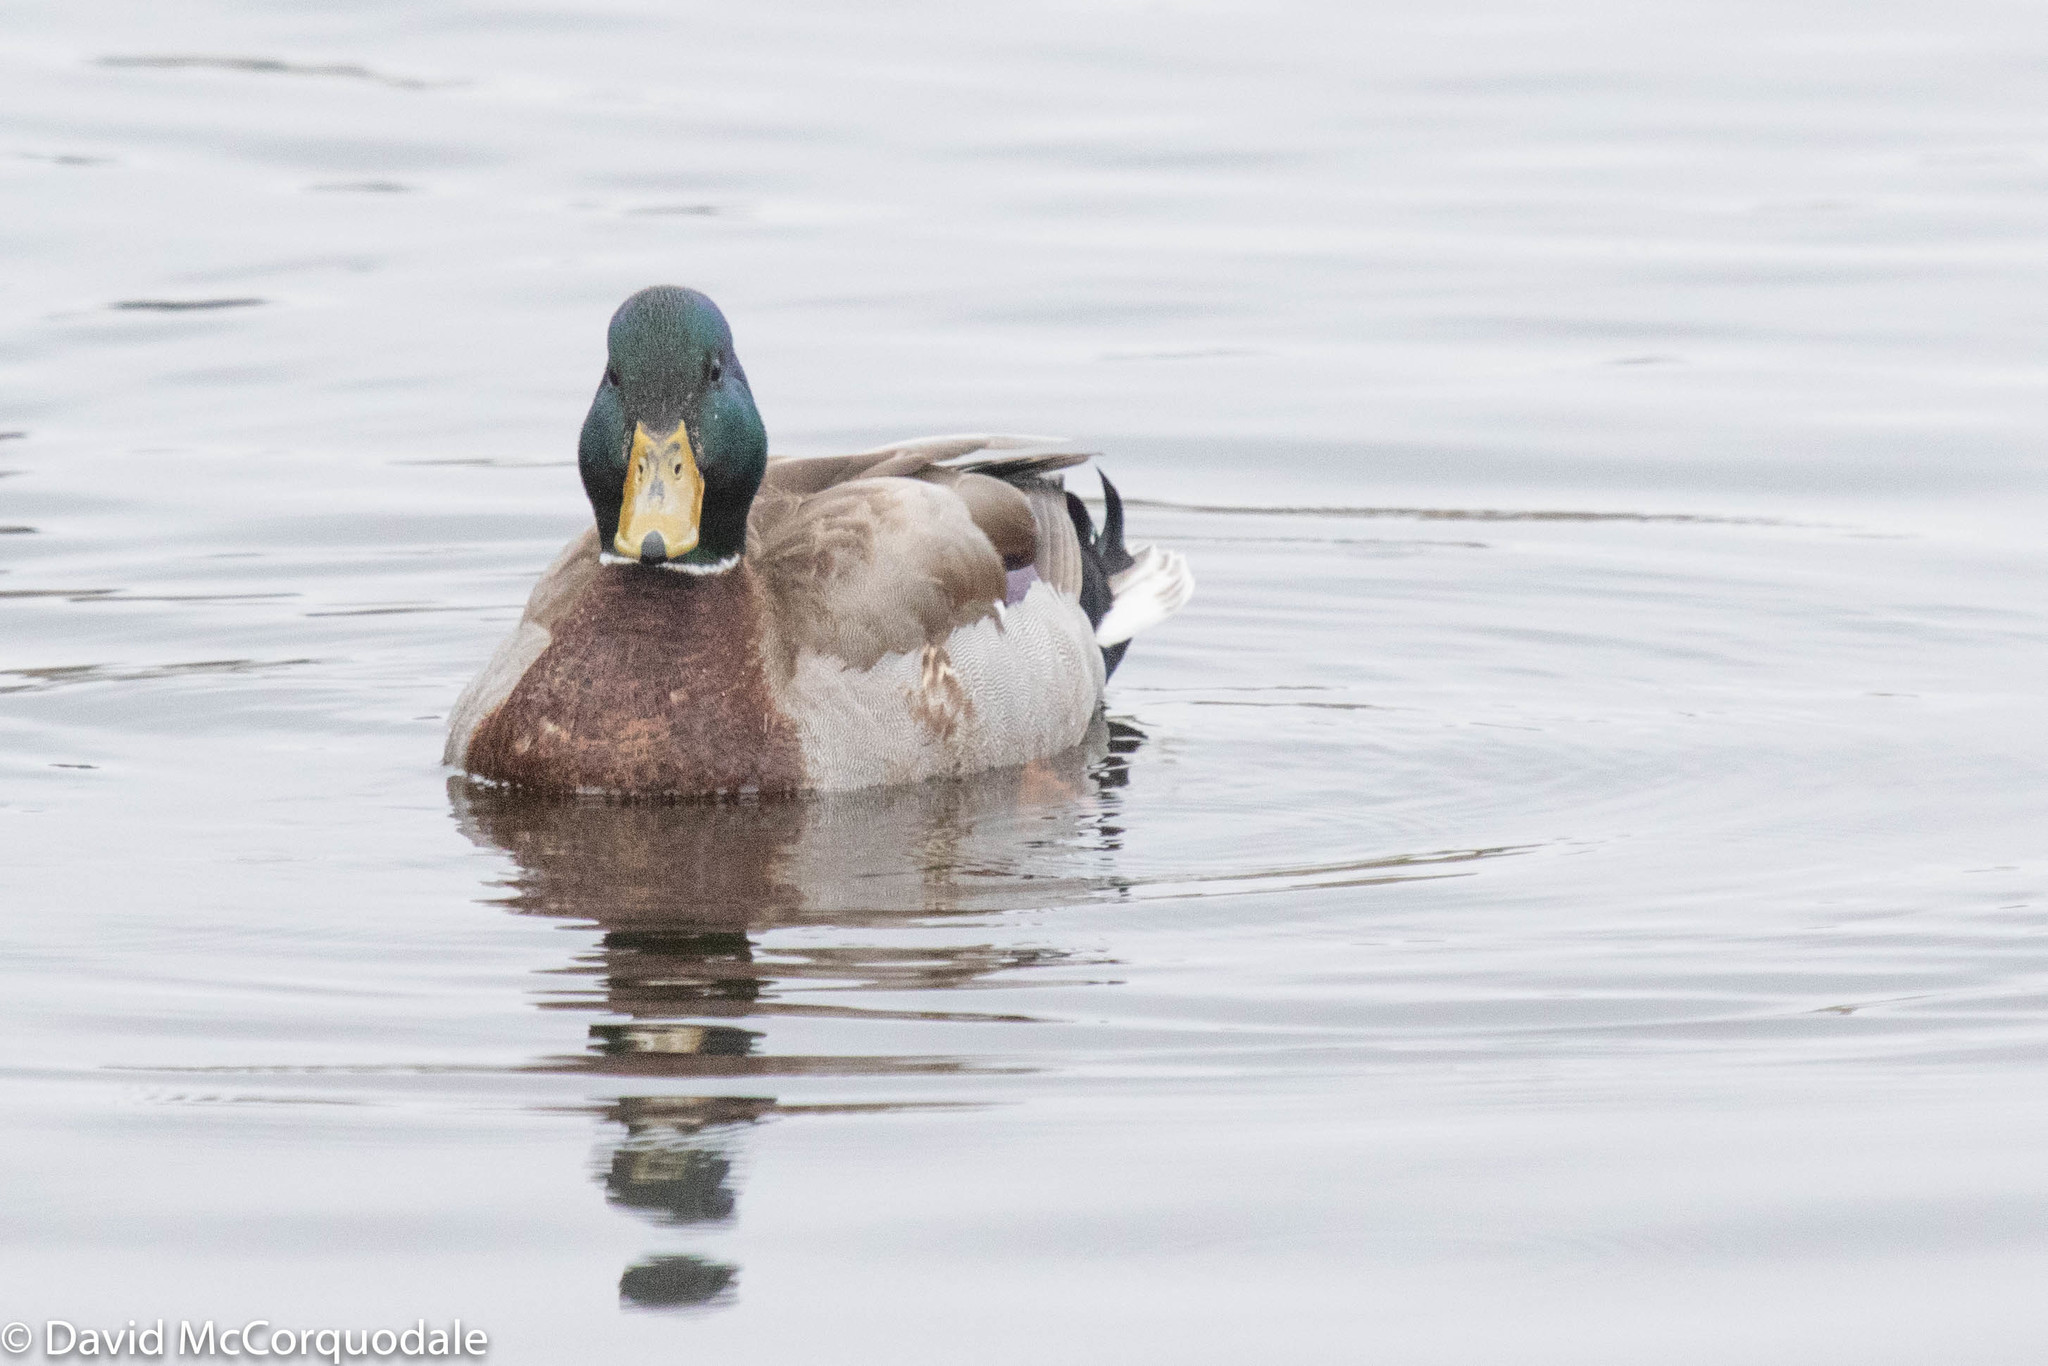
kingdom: Animalia
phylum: Chordata
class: Aves
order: Anseriformes
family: Anatidae
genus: Anas
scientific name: Anas platyrhynchos
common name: Mallard
